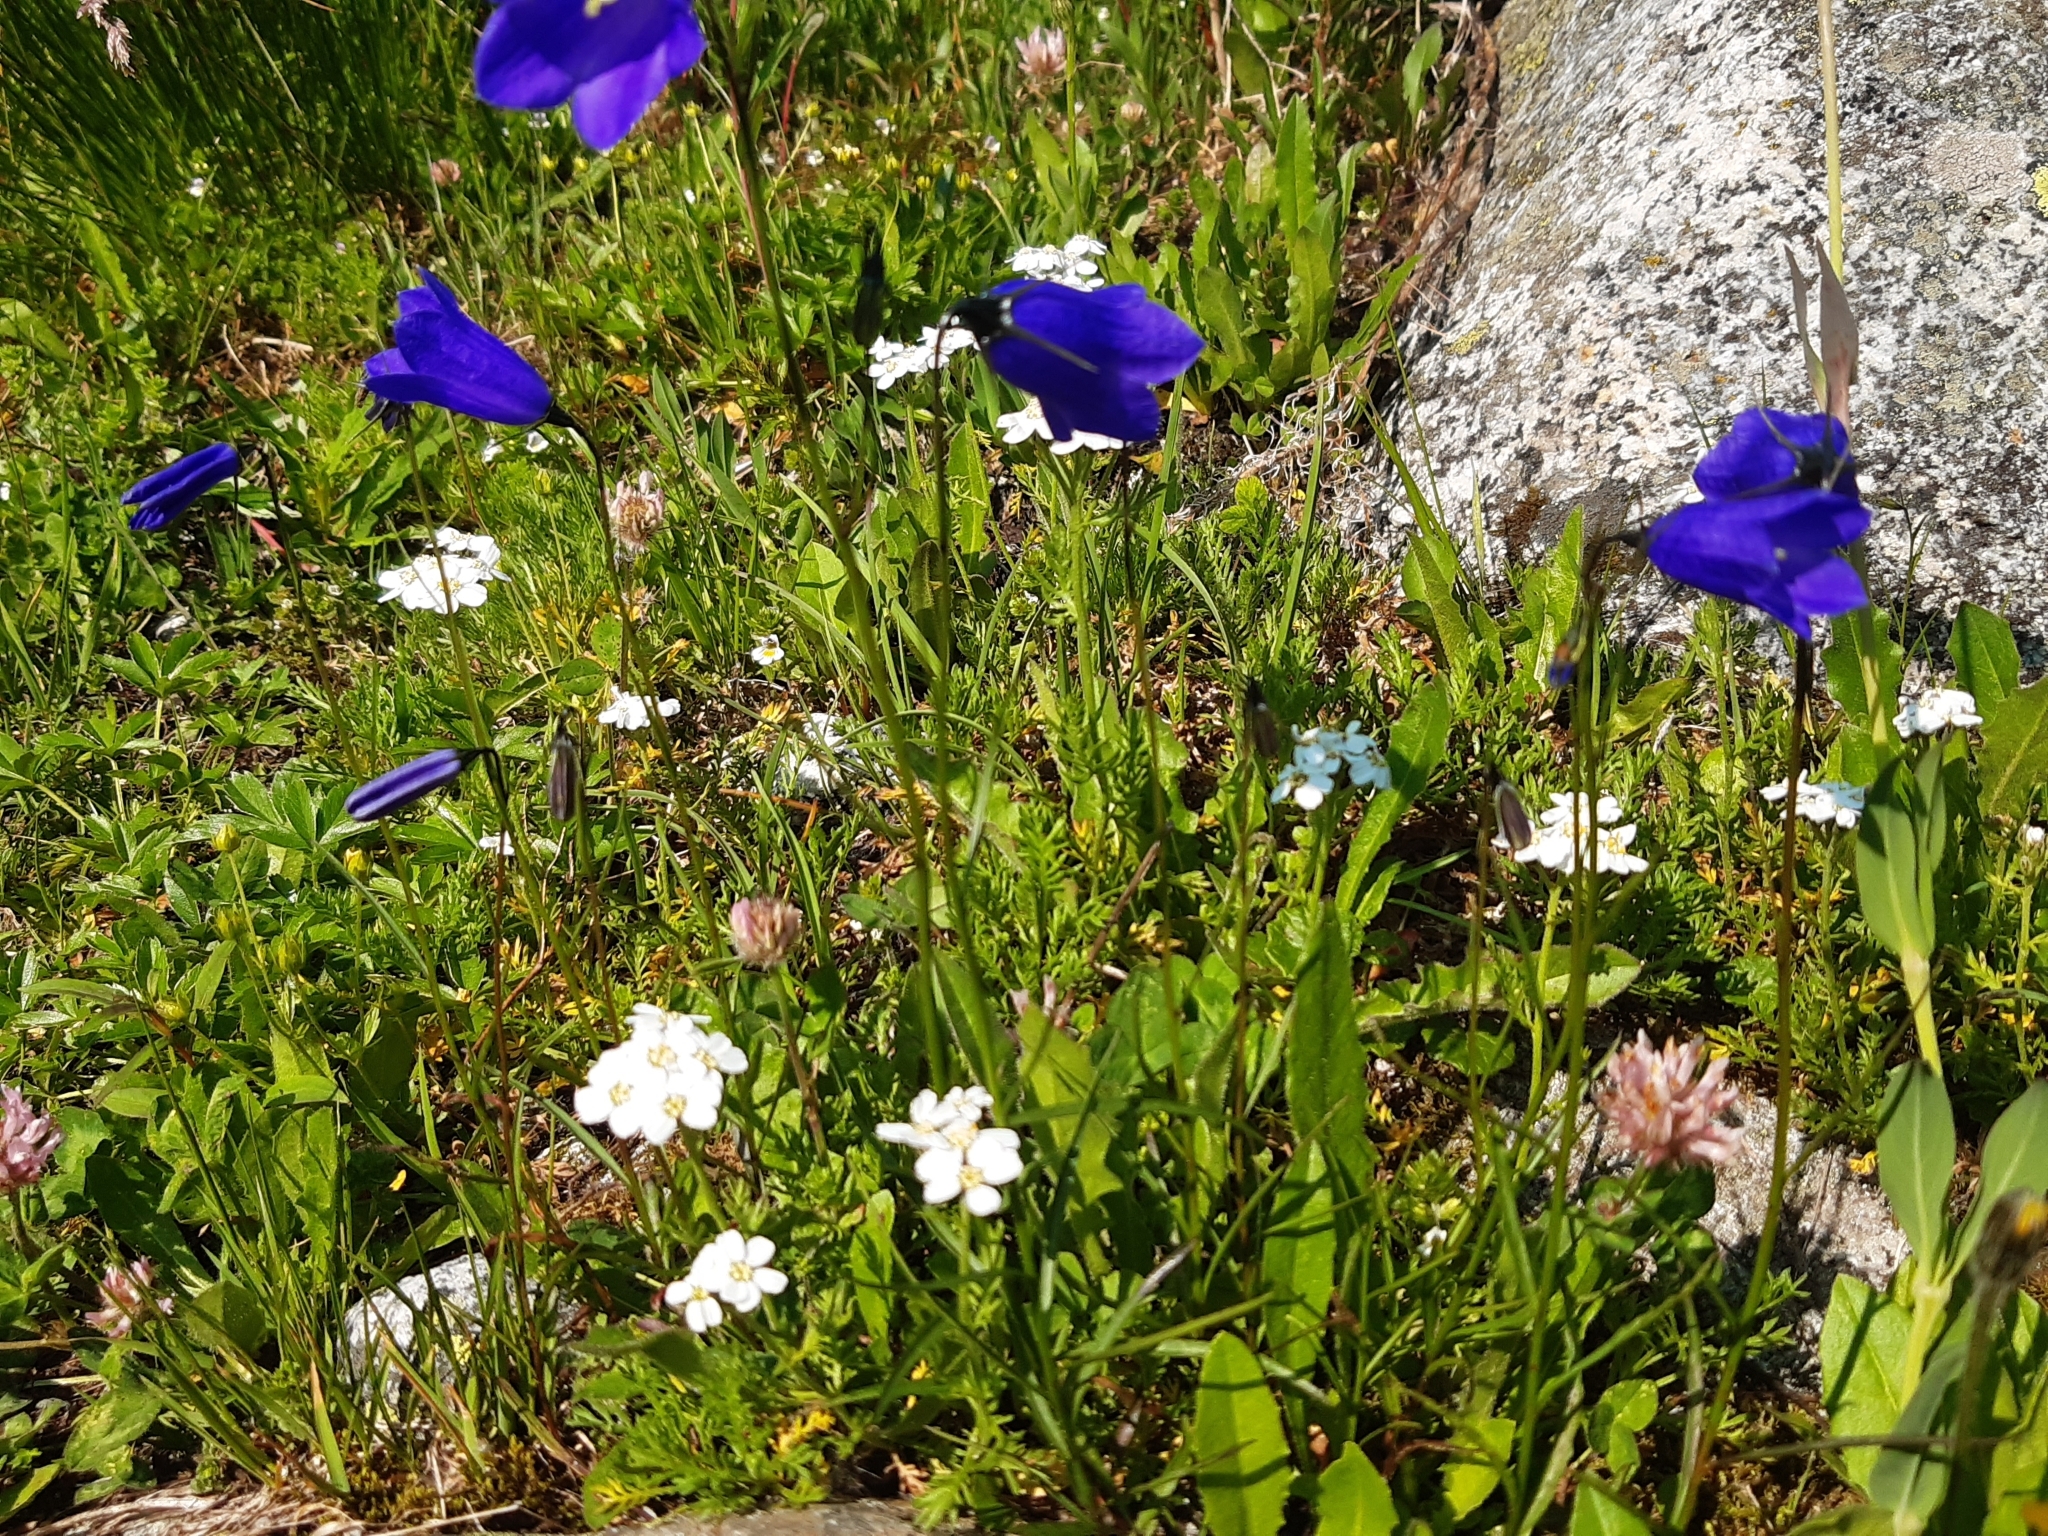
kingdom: Plantae
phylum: Tracheophyta
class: Magnoliopsida
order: Asterales
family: Campanulaceae
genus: Campanula
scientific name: Campanula scheuchzeri
